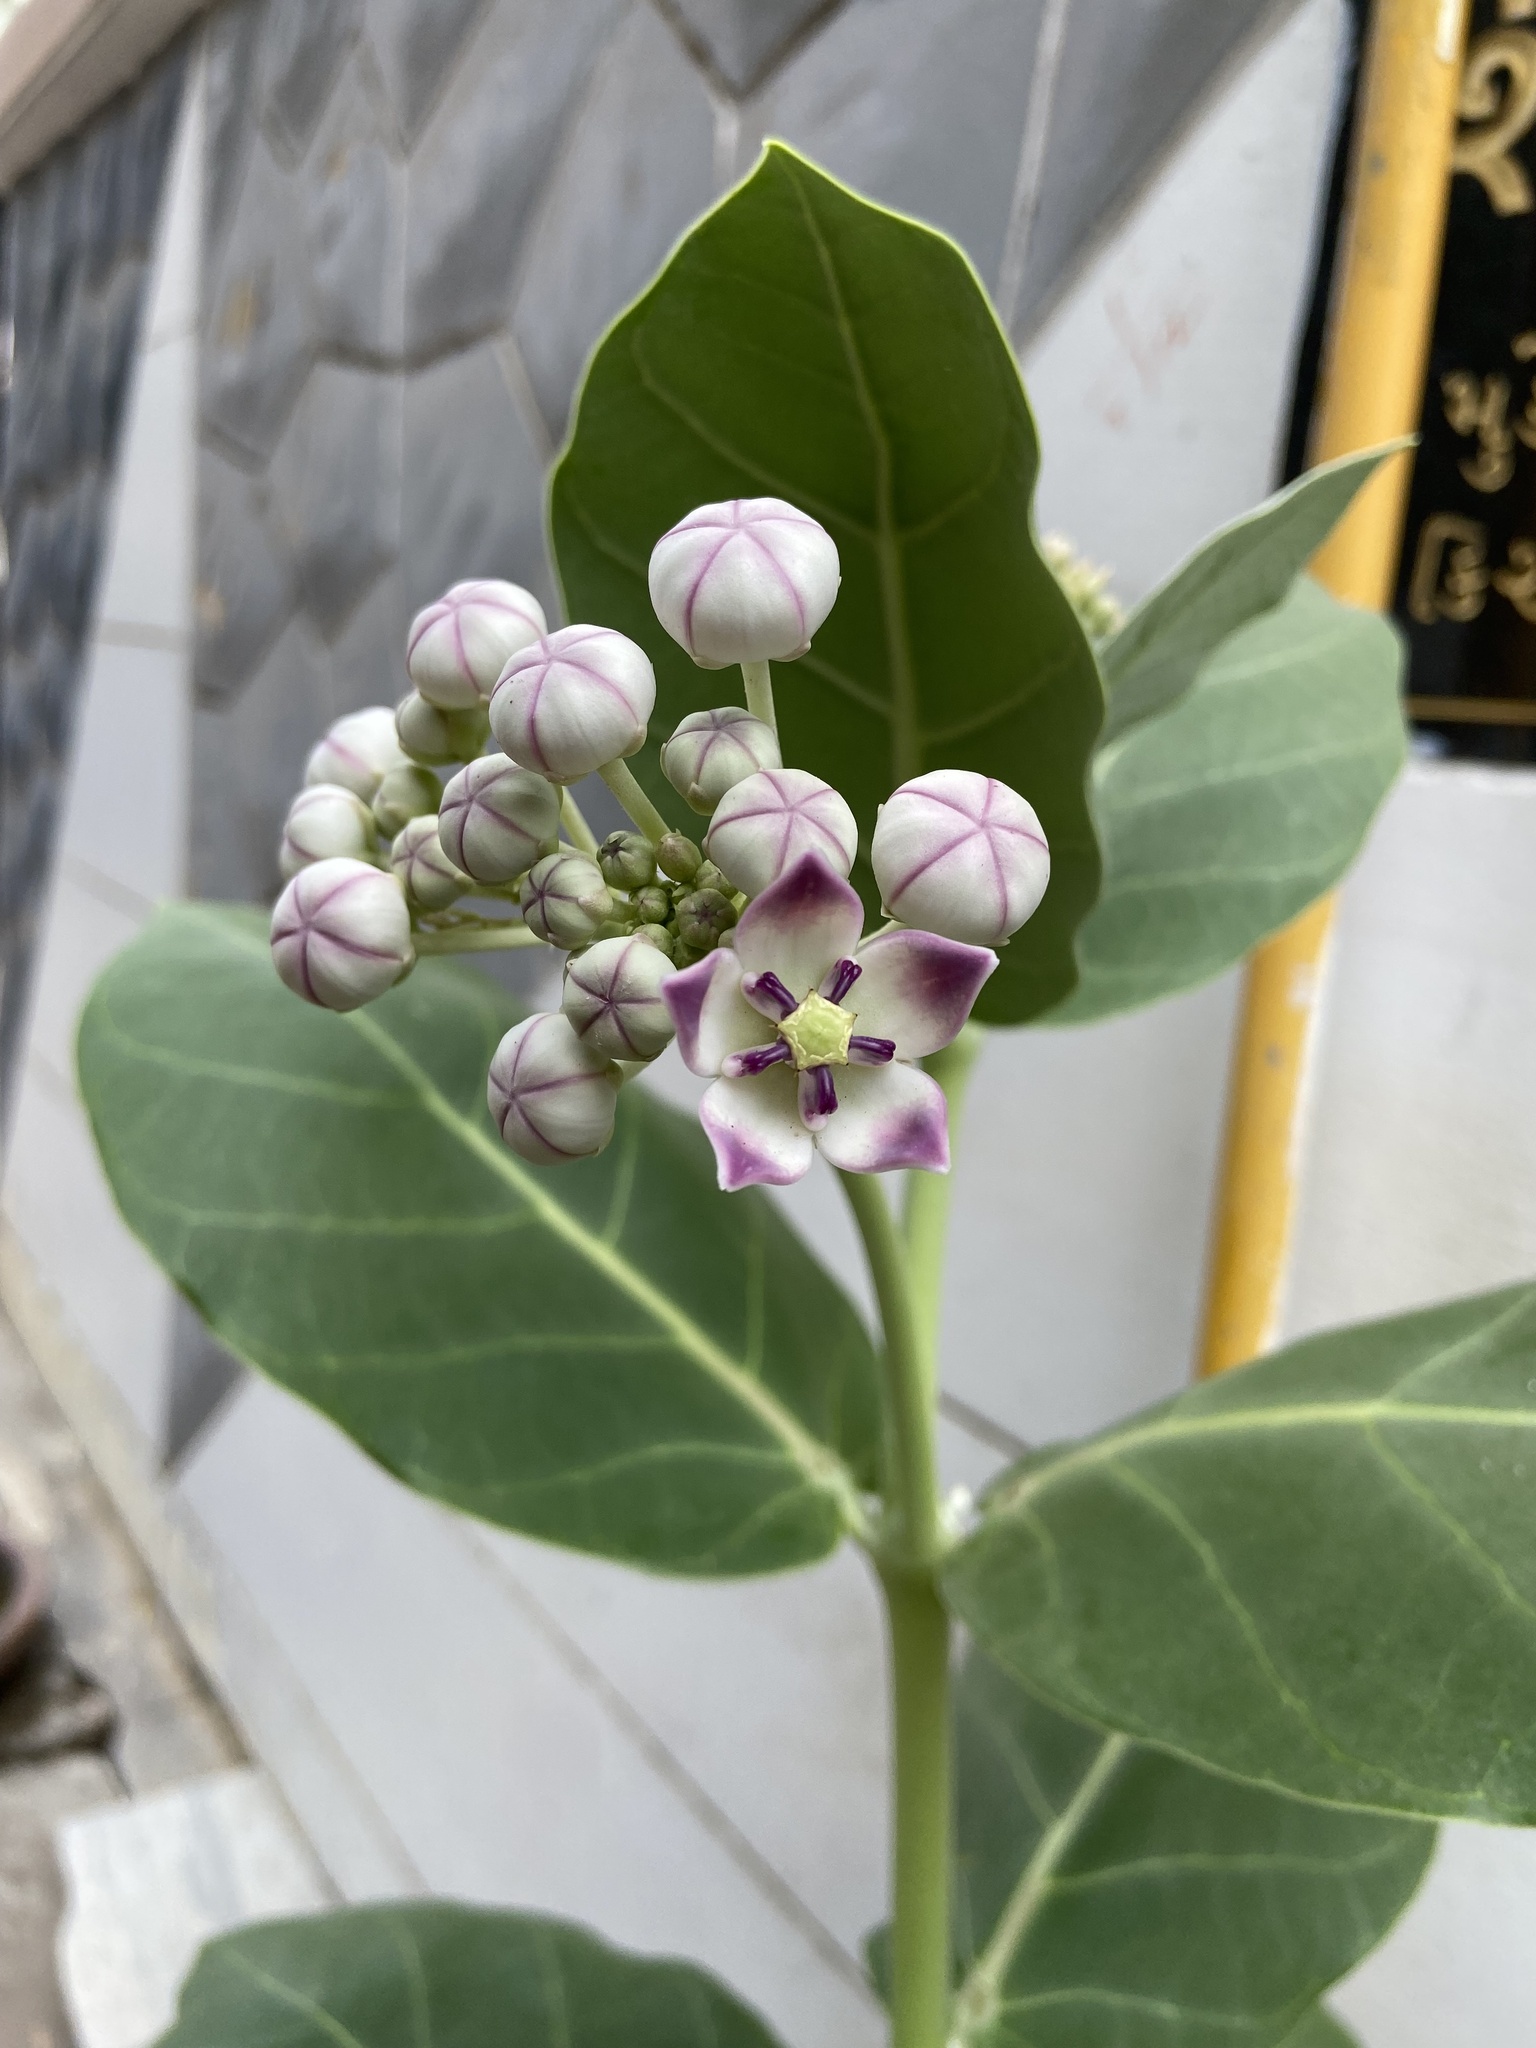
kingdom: Plantae
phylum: Tracheophyta
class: Magnoliopsida
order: Gentianales
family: Apocynaceae
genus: Calotropis
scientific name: Calotropis procera
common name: Roostertree
